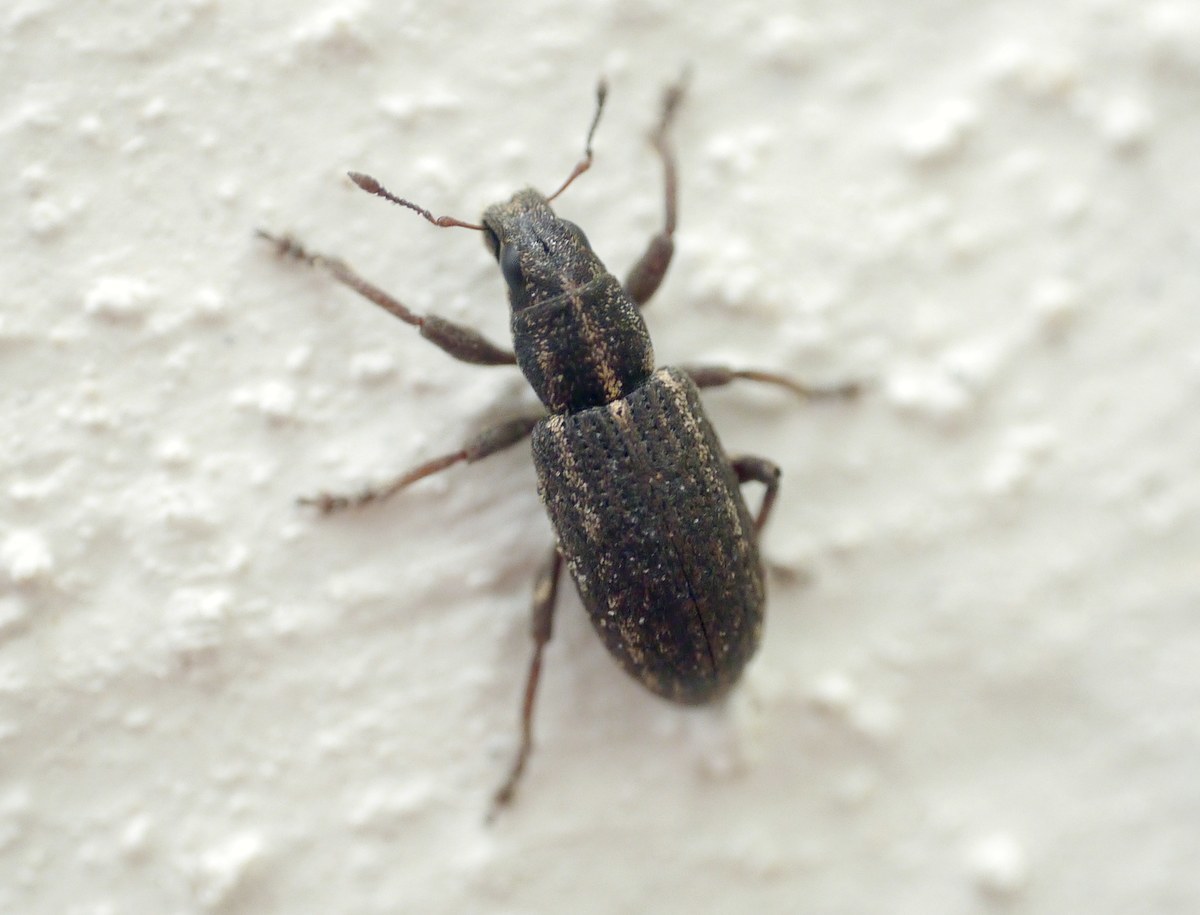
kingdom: Animalia
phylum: Arthropoda
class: Insecta
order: Coleoptera
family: Curculionidae
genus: Sitona
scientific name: Sitona inops
